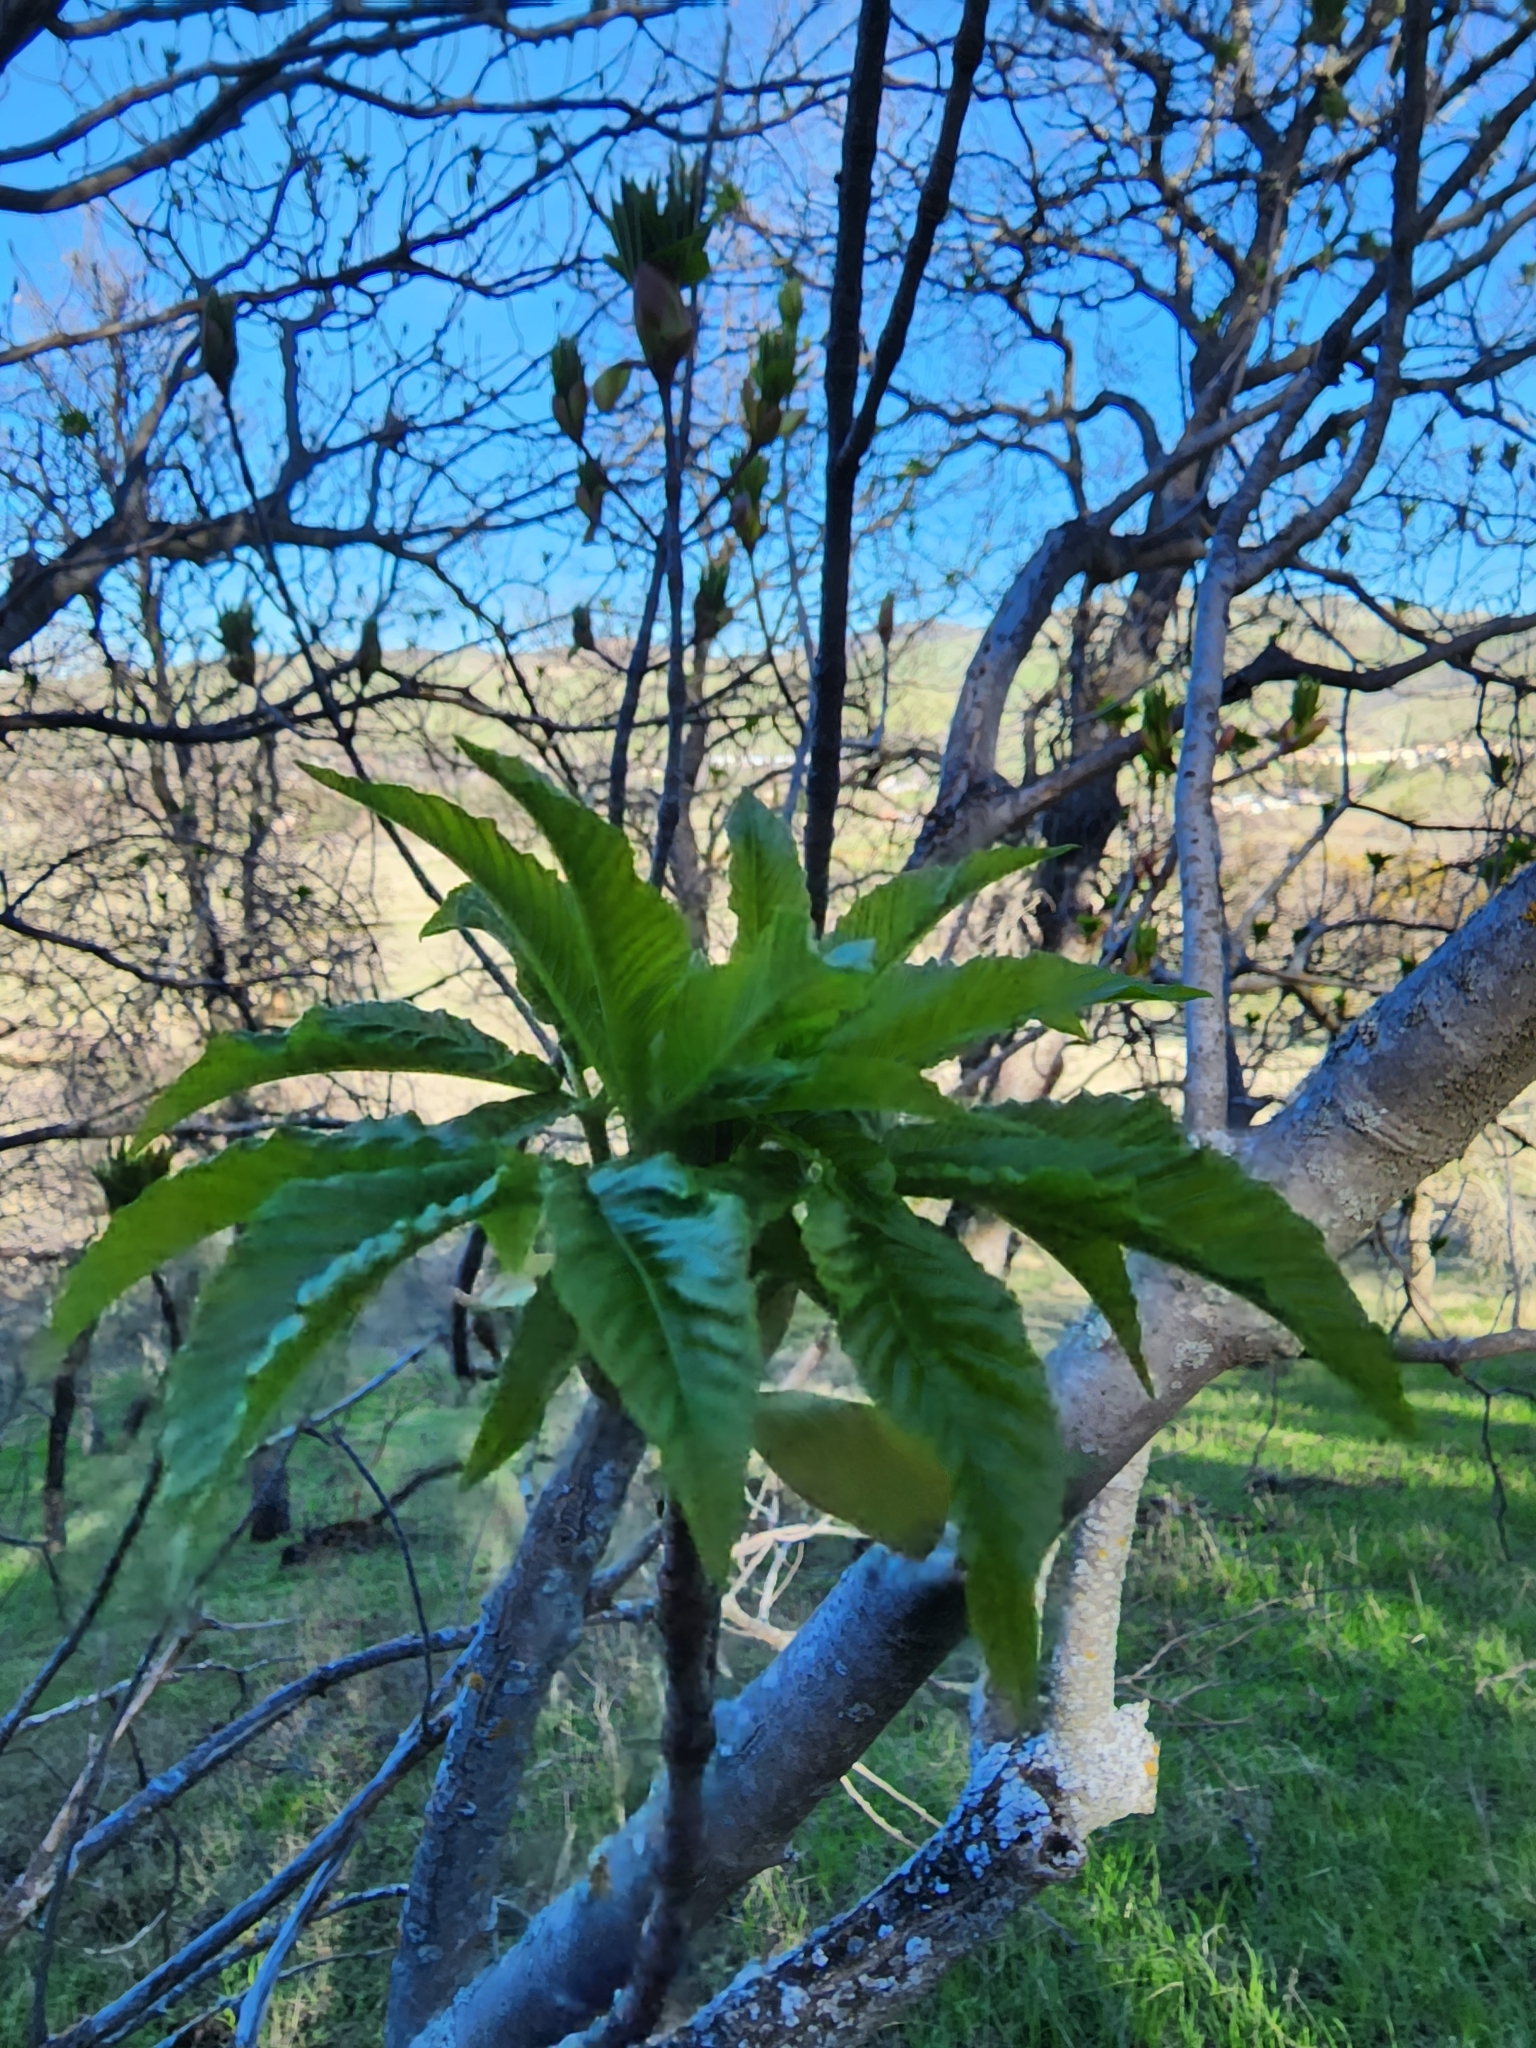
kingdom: Plantae
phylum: Tracheophyta
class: Magnoliopsida
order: Sapindales
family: Sapindaceae
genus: Aesculus
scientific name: Aesculus californica
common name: California buckeye
